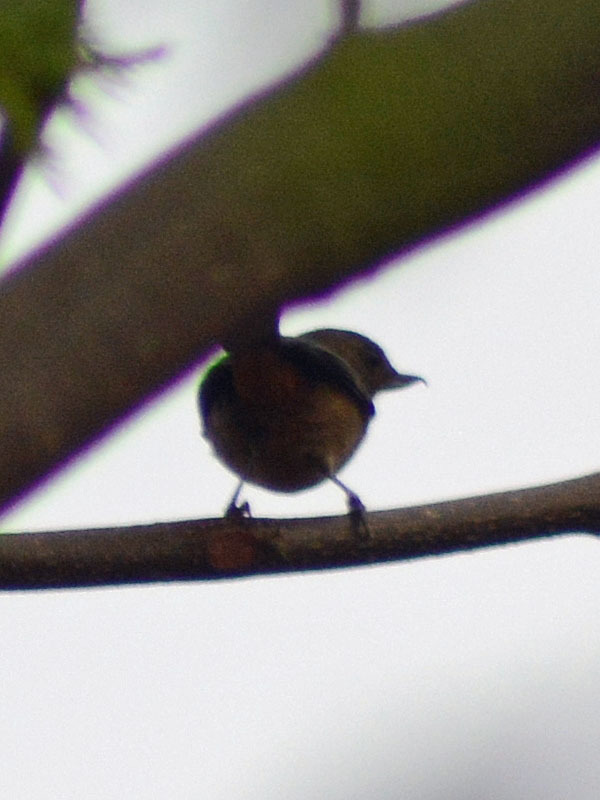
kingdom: Animalia
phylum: Chordata
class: Aves
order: Passeriformes
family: Thraupidae
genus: Diglossa
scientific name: Diglossa baritula
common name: Cinnamon-bellied flowerpiercer
